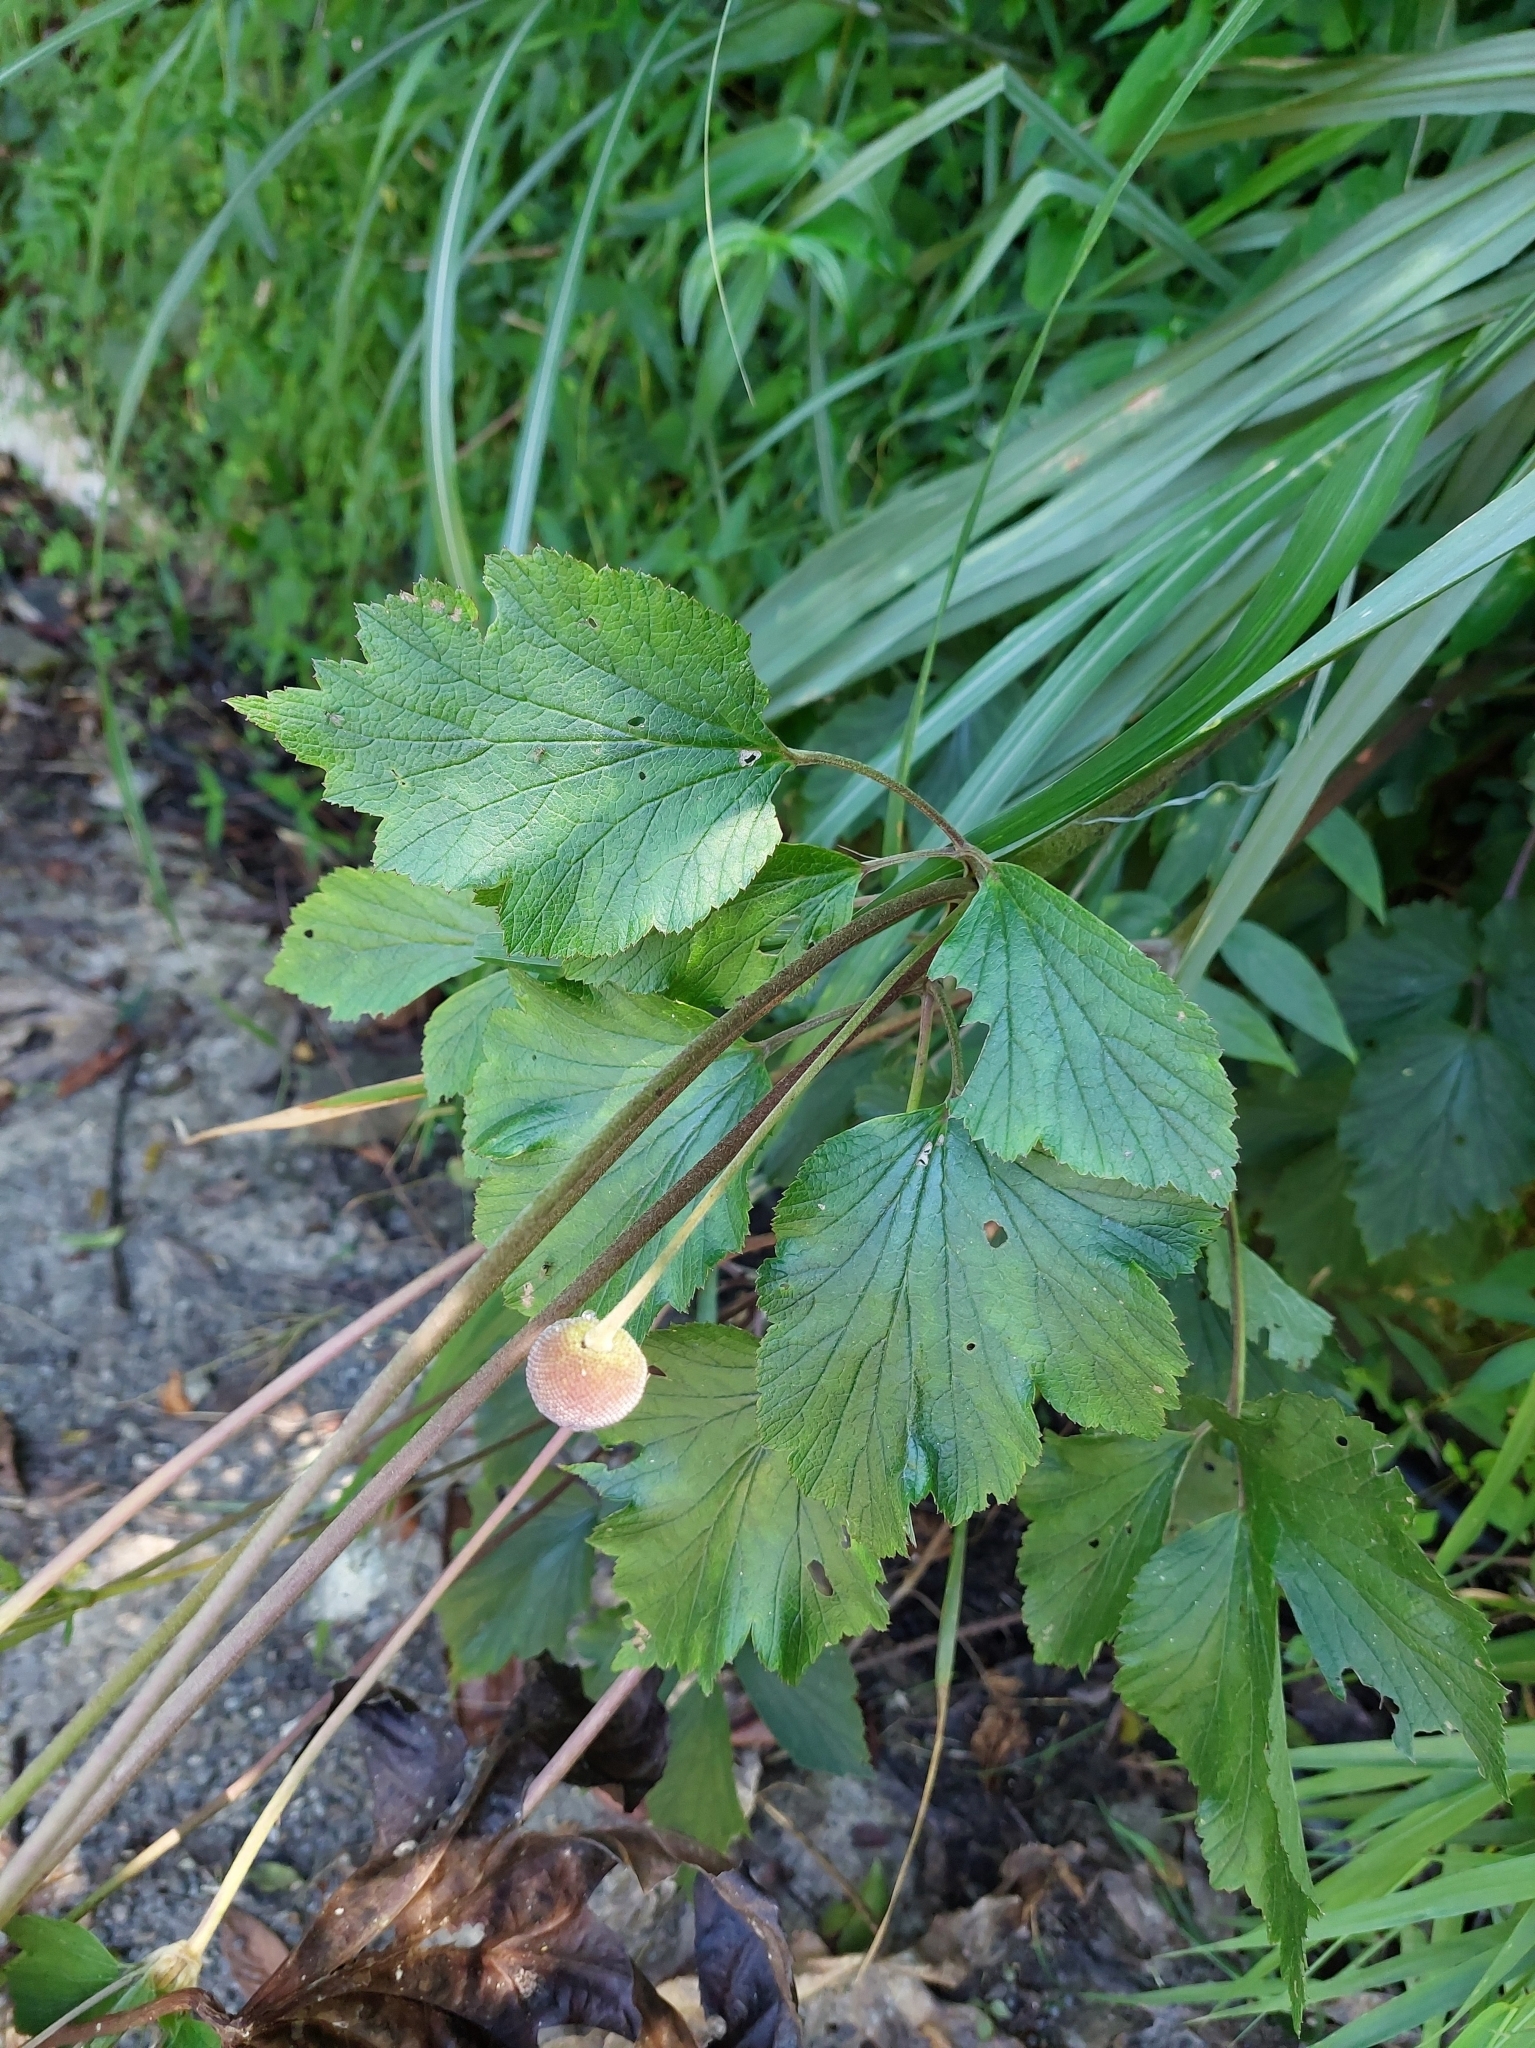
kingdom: Plantae
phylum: Tracheophyta
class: Magnoliopsida
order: Ranunculales
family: Ranunculaceae
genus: Eriocapitella
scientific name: Eriocapitella vitifolia
